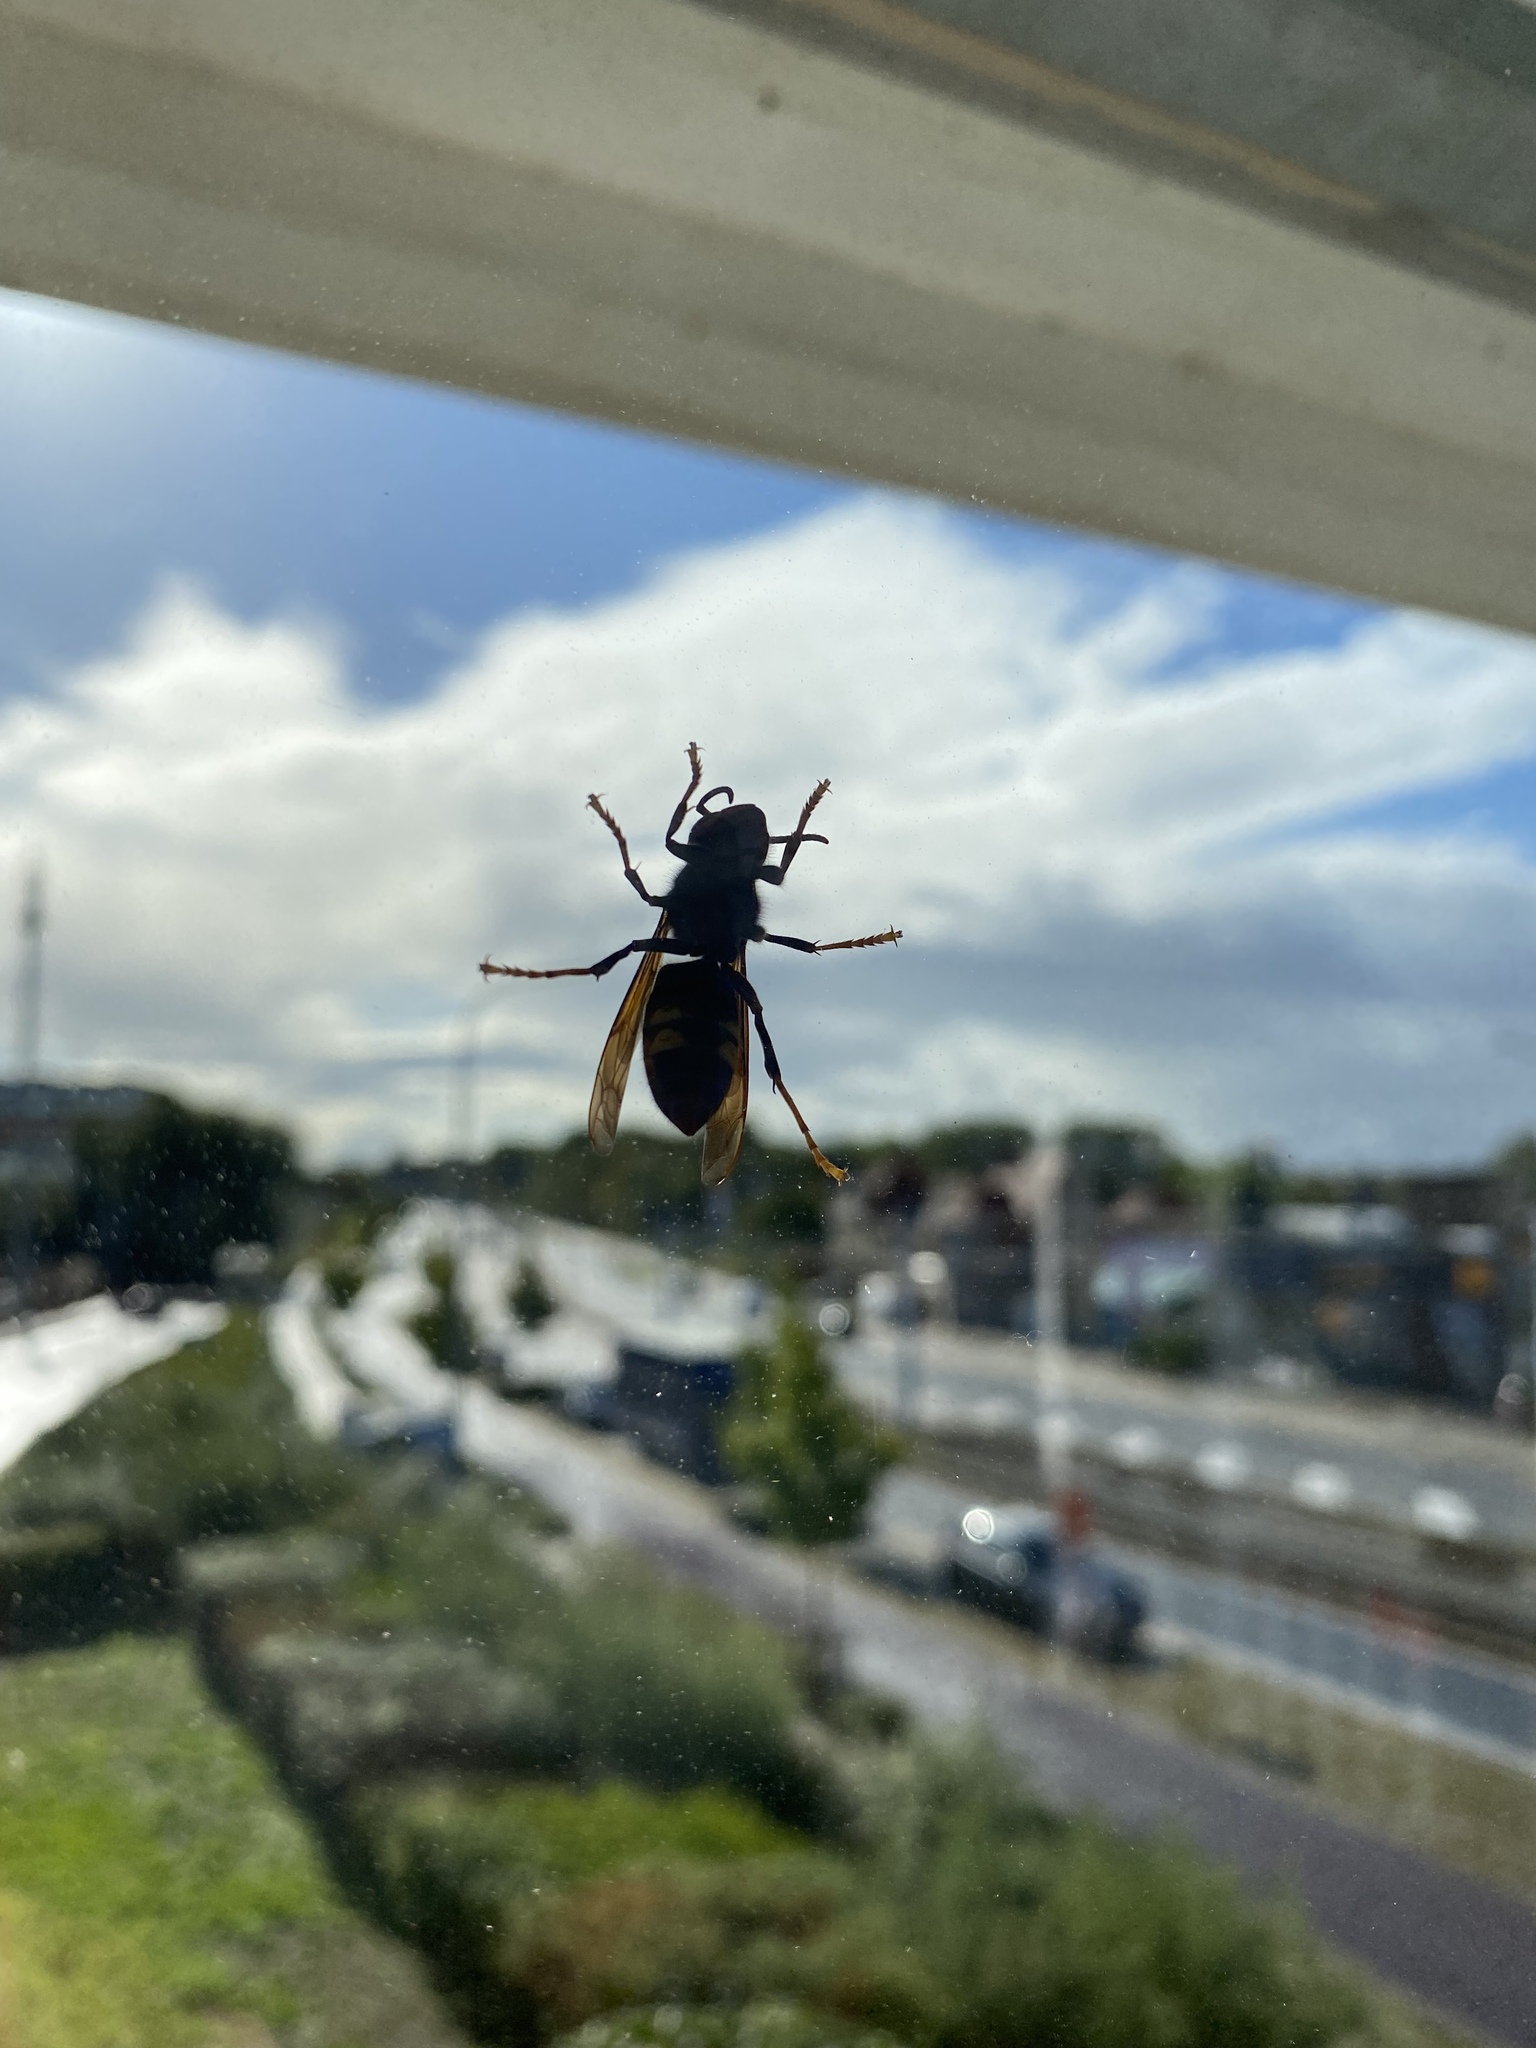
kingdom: Animalia
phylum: Arthropoda
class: Insecta
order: Hymenoptera
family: Vespidae
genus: Vespa
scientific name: Vespa velutina
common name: Asian hornet
